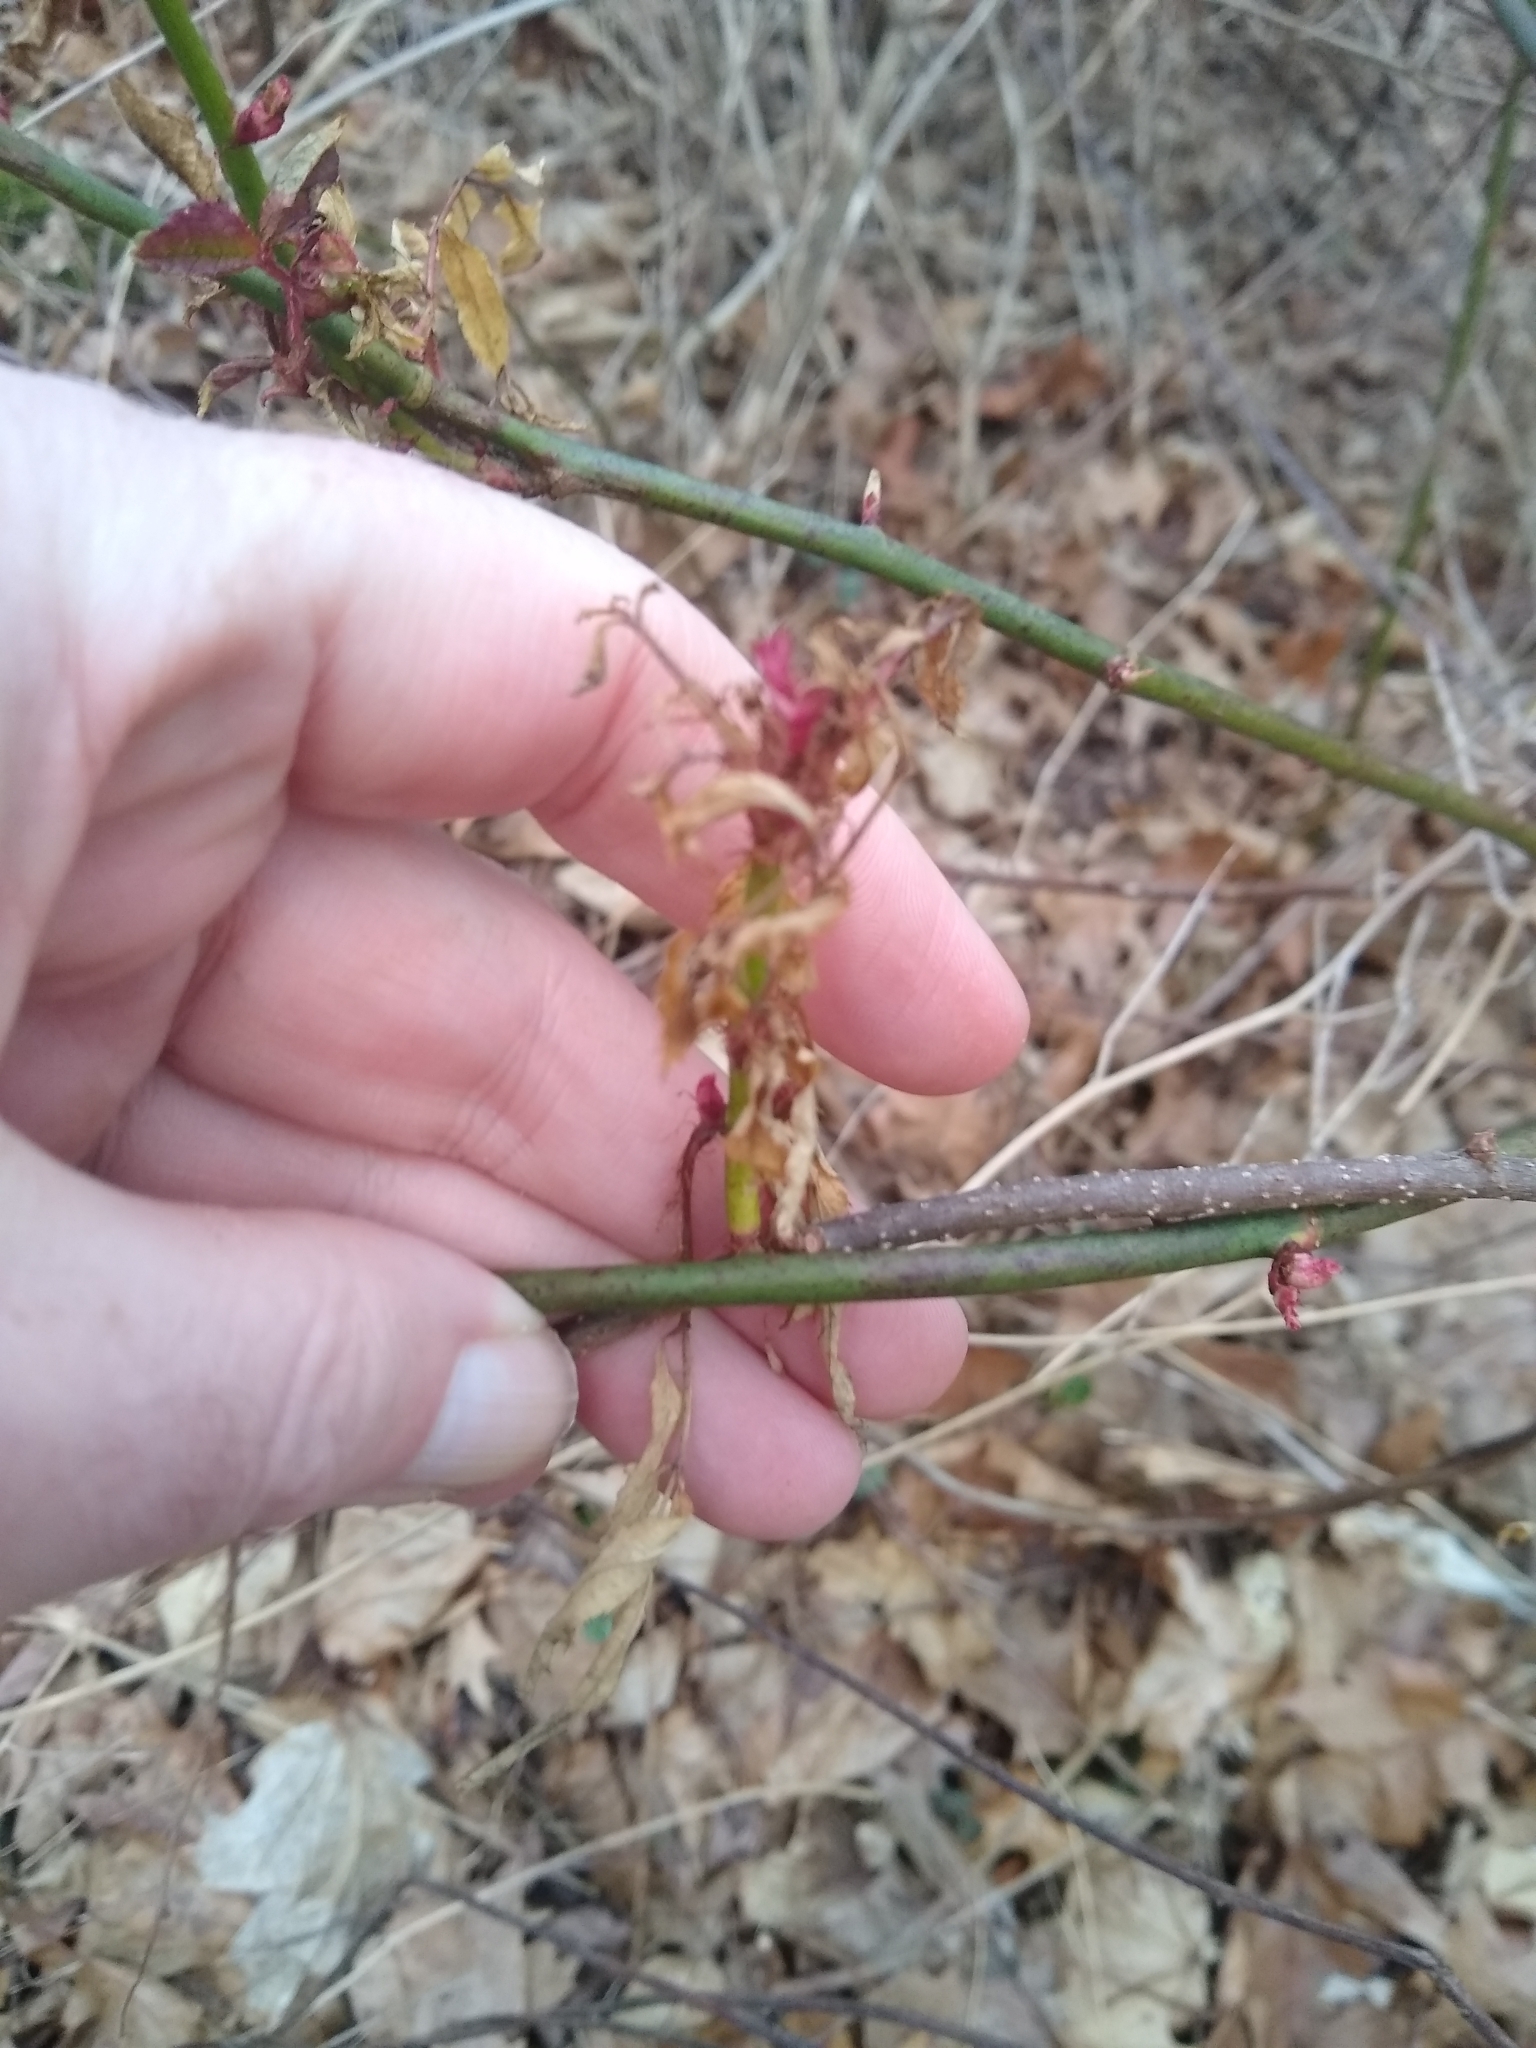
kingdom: Viruses
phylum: Negarnaviricota
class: Ellioviricetes
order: Bunyavirales
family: Fimoviridae
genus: Emaravirus
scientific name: Emaravirus rosae
